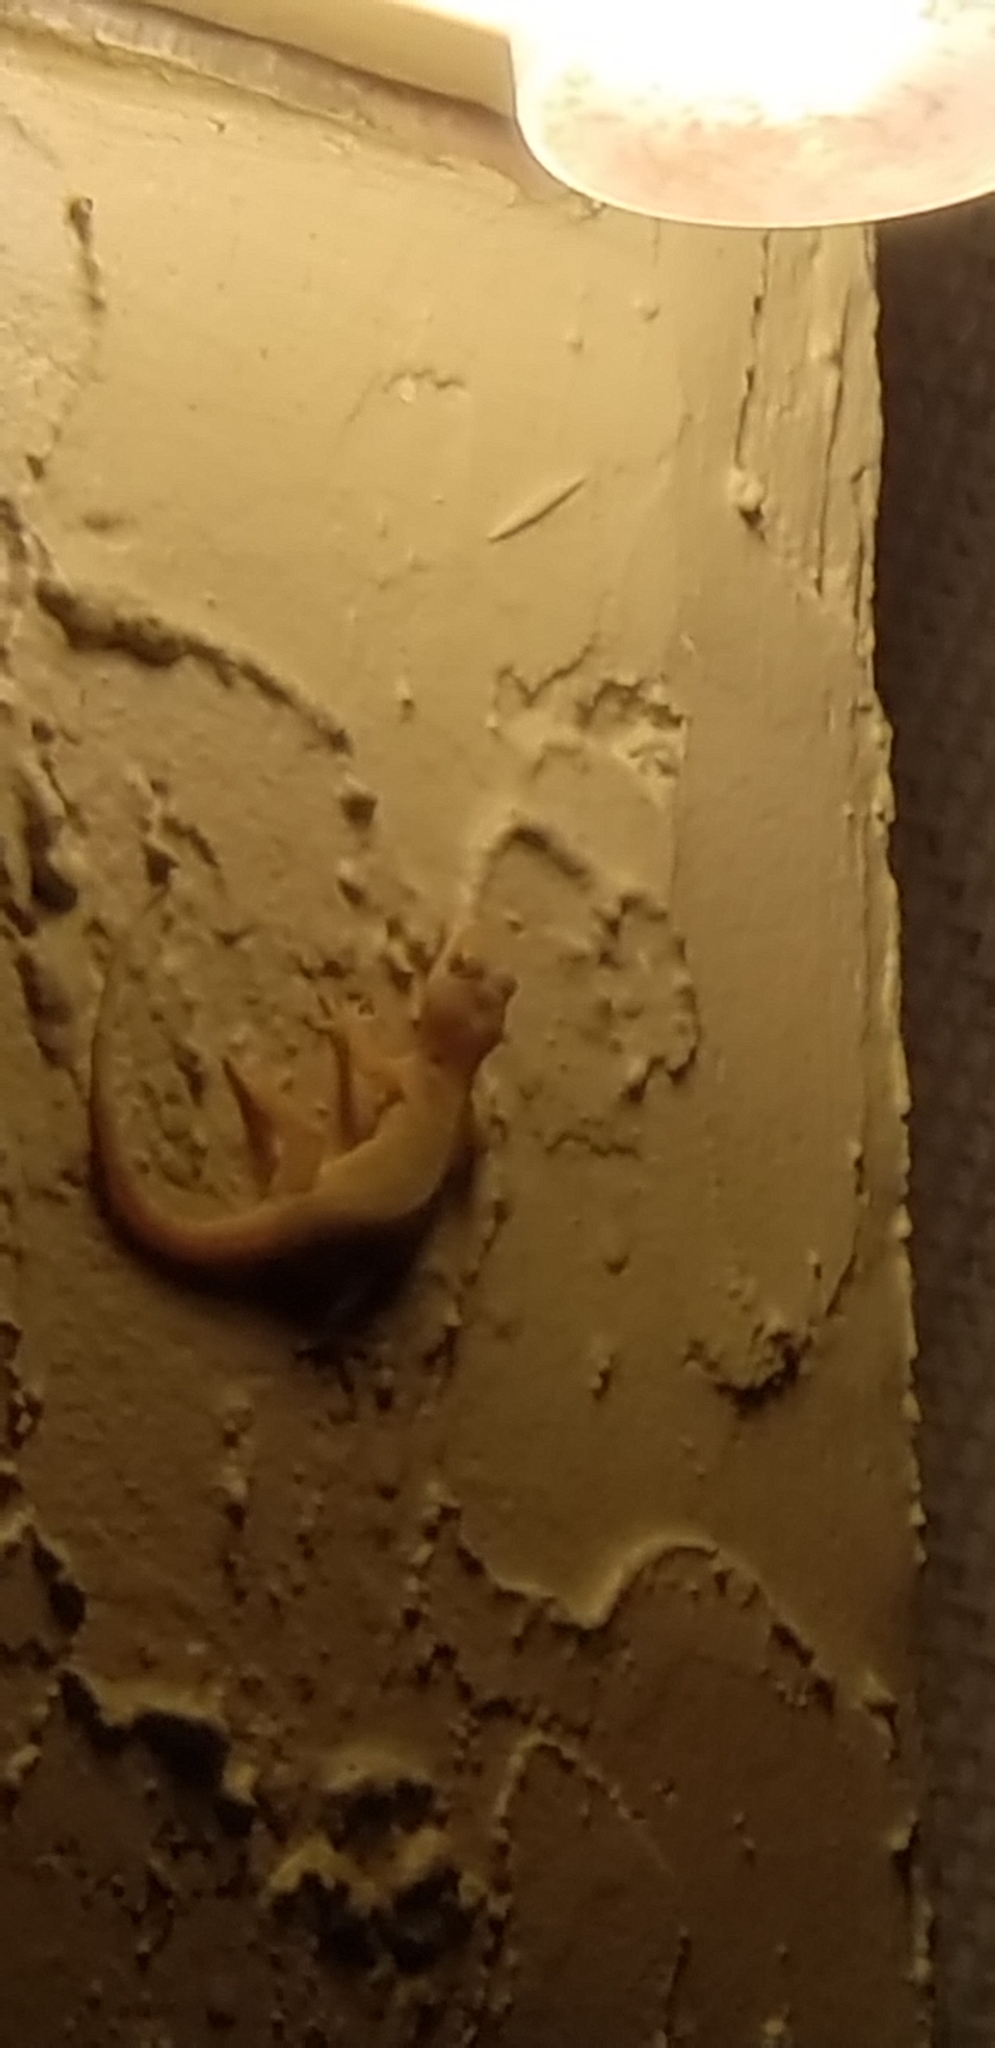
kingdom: Animalia
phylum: Chordata
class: Squamata
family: Gekkonidae
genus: Hemidactylus
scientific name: Hemidactylus mabouia
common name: House gecko
